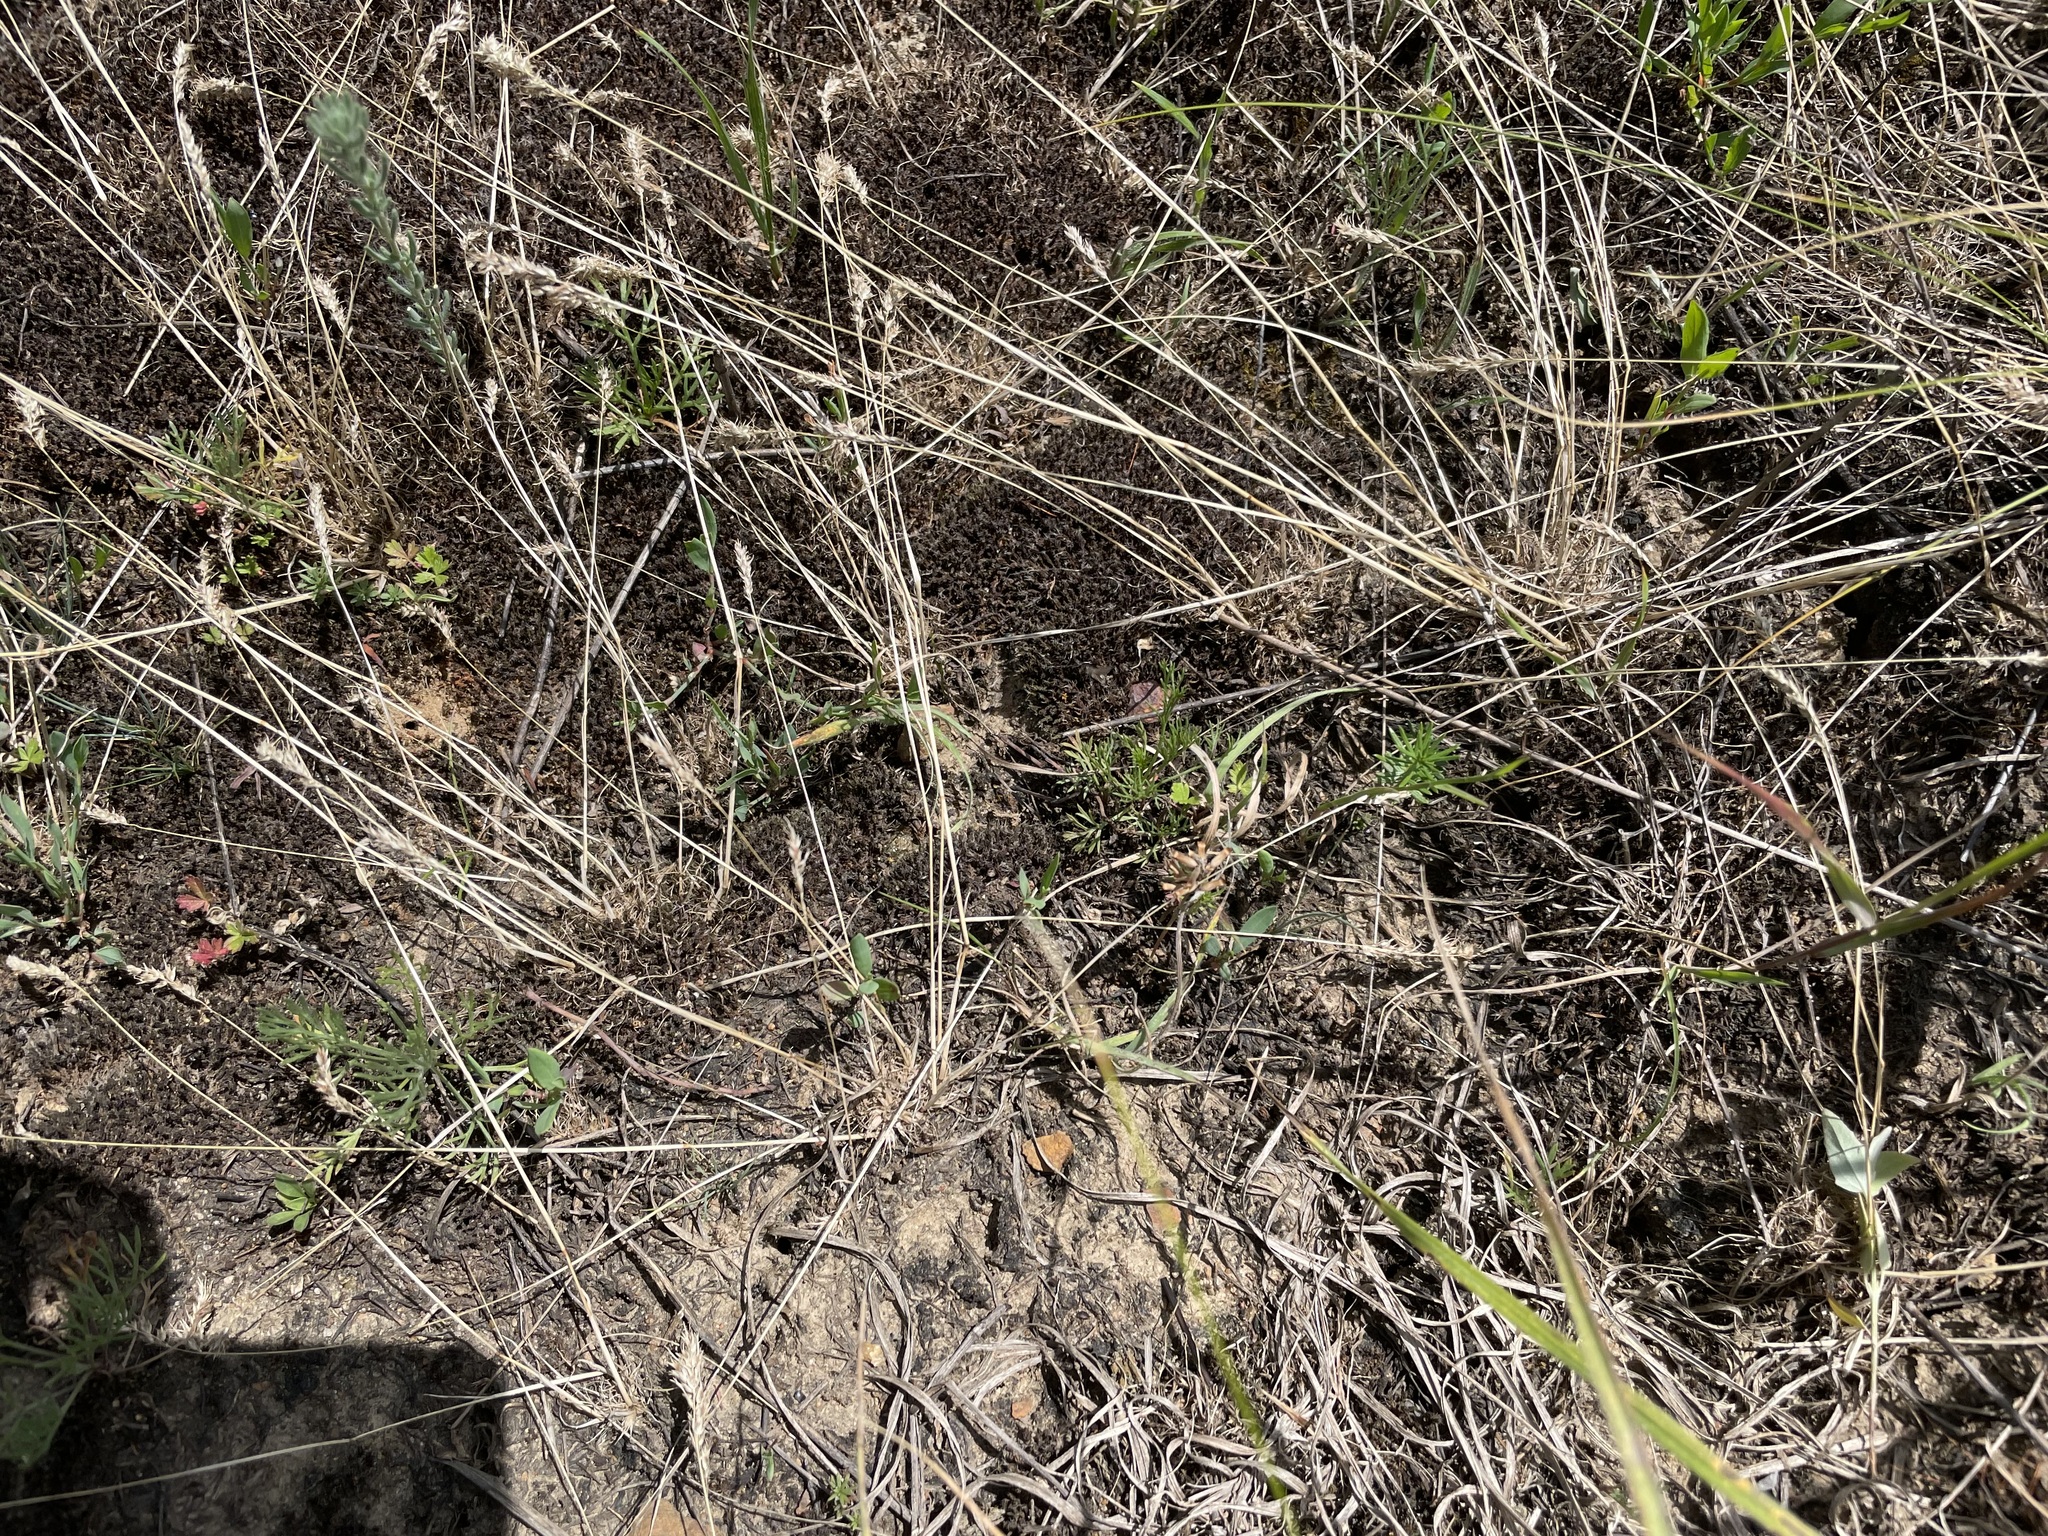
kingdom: Plantae
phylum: Tracheophyta
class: Liliopsida
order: Poales
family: Poaceae
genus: Poa
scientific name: Poa bulbosa
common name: Bulbous bluegrass
